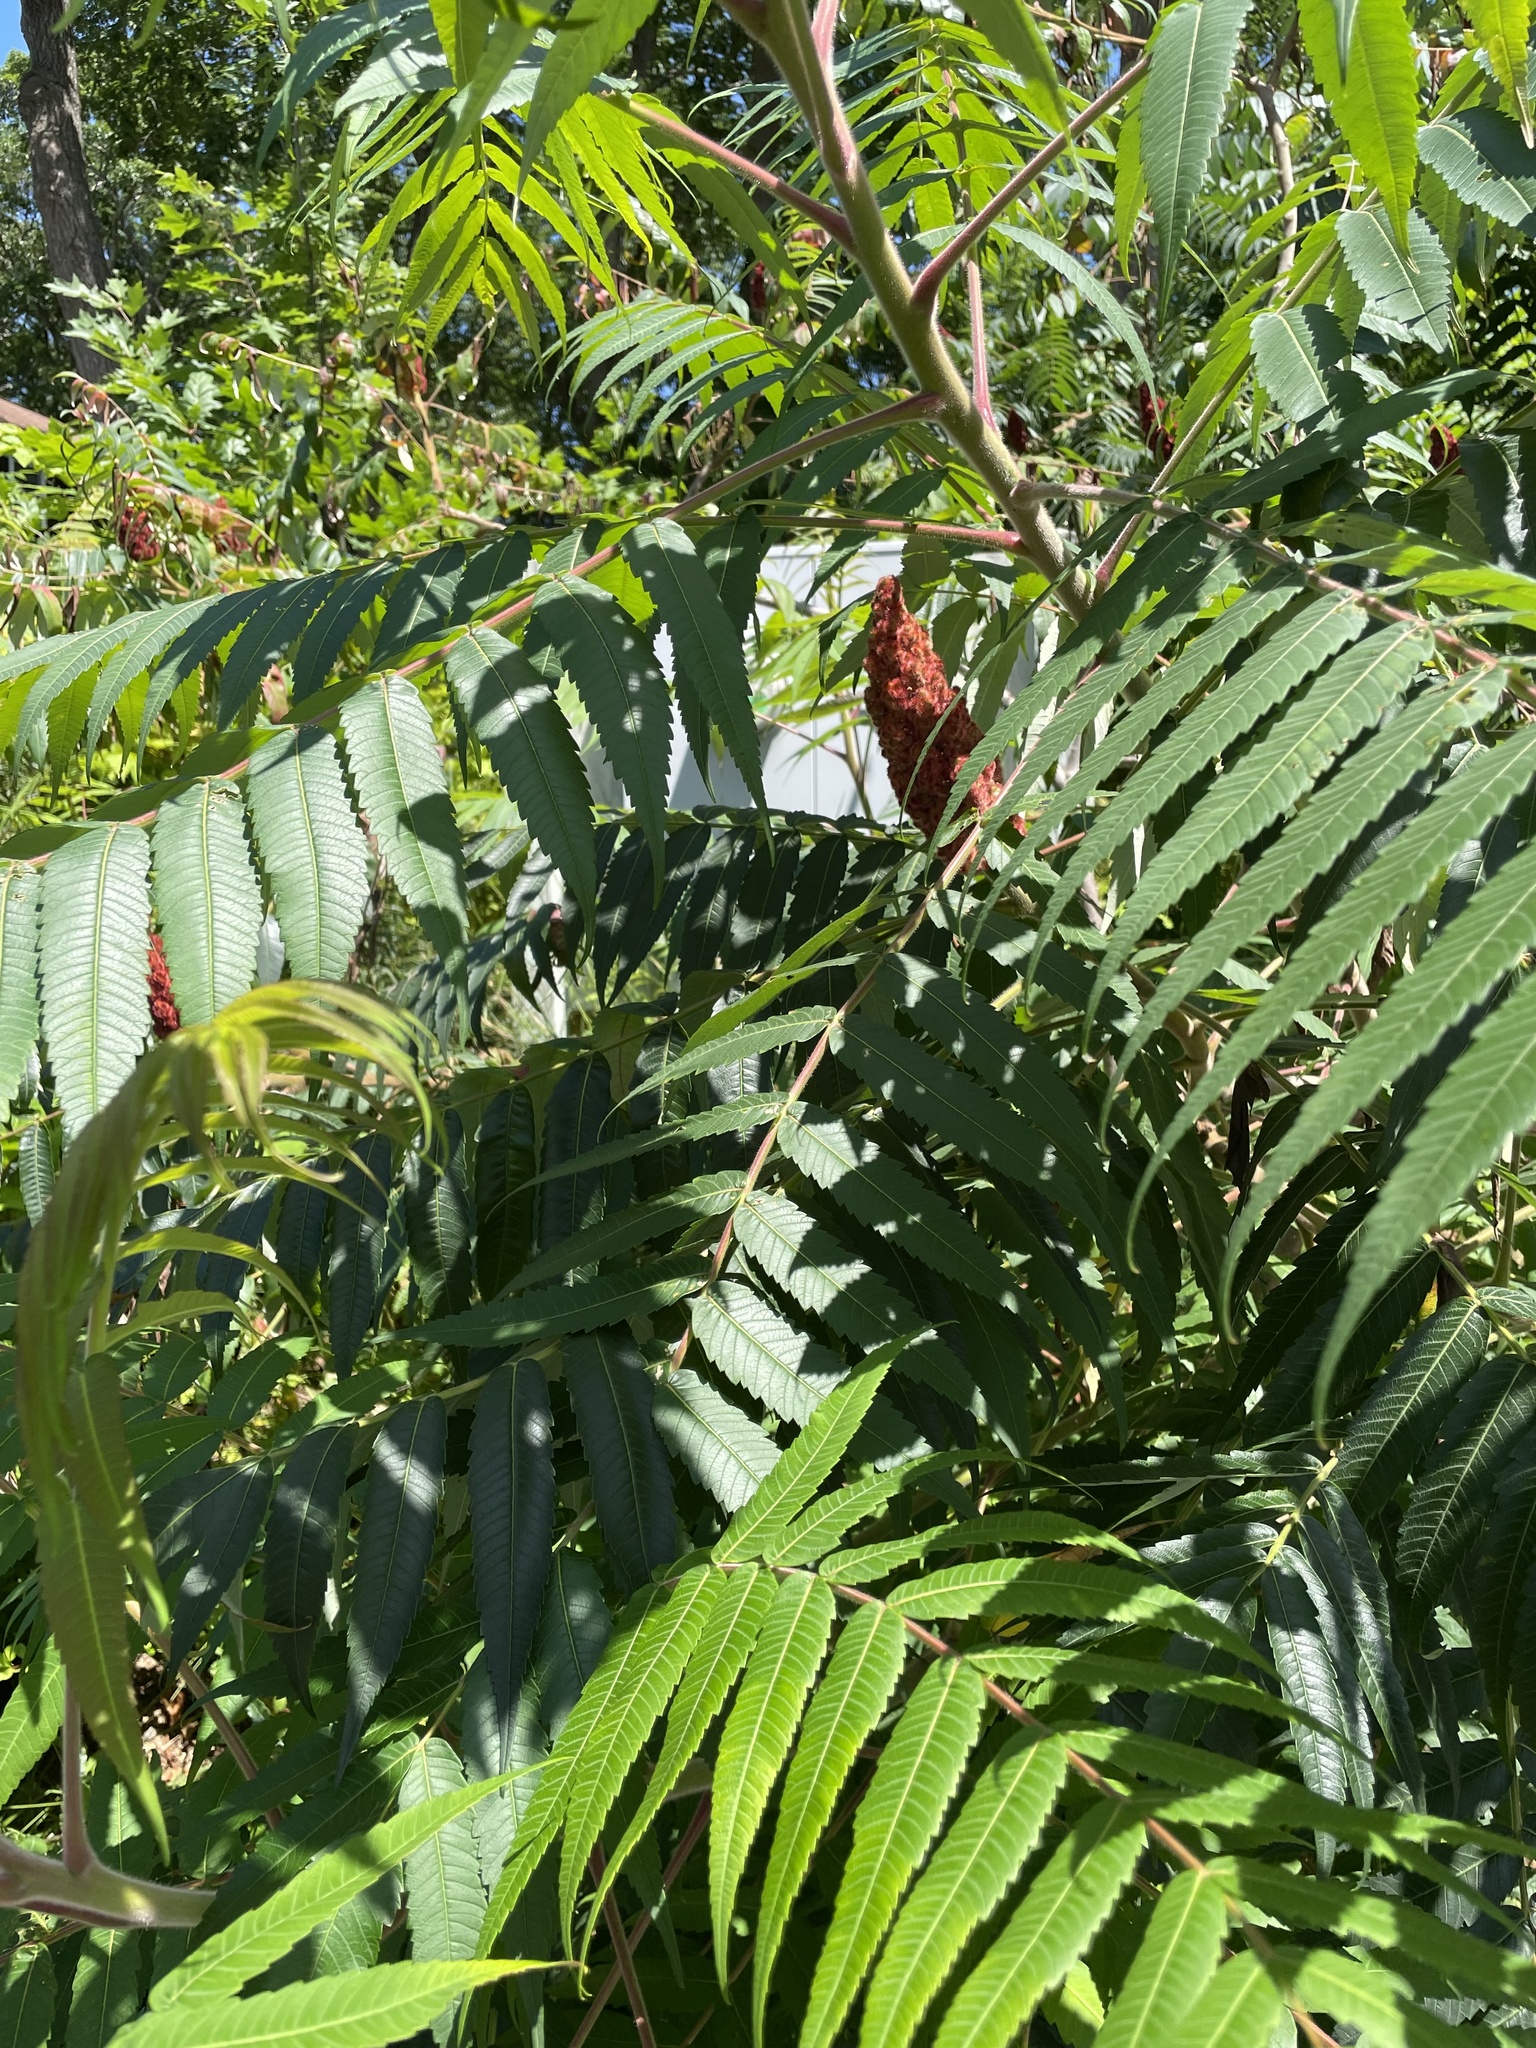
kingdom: Plantae
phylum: Tracheophyta
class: Magnoliopsida
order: Sapindales
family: Anacardiaceae
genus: Rhus
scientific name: Rhus typhina
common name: Staghorn sumac
